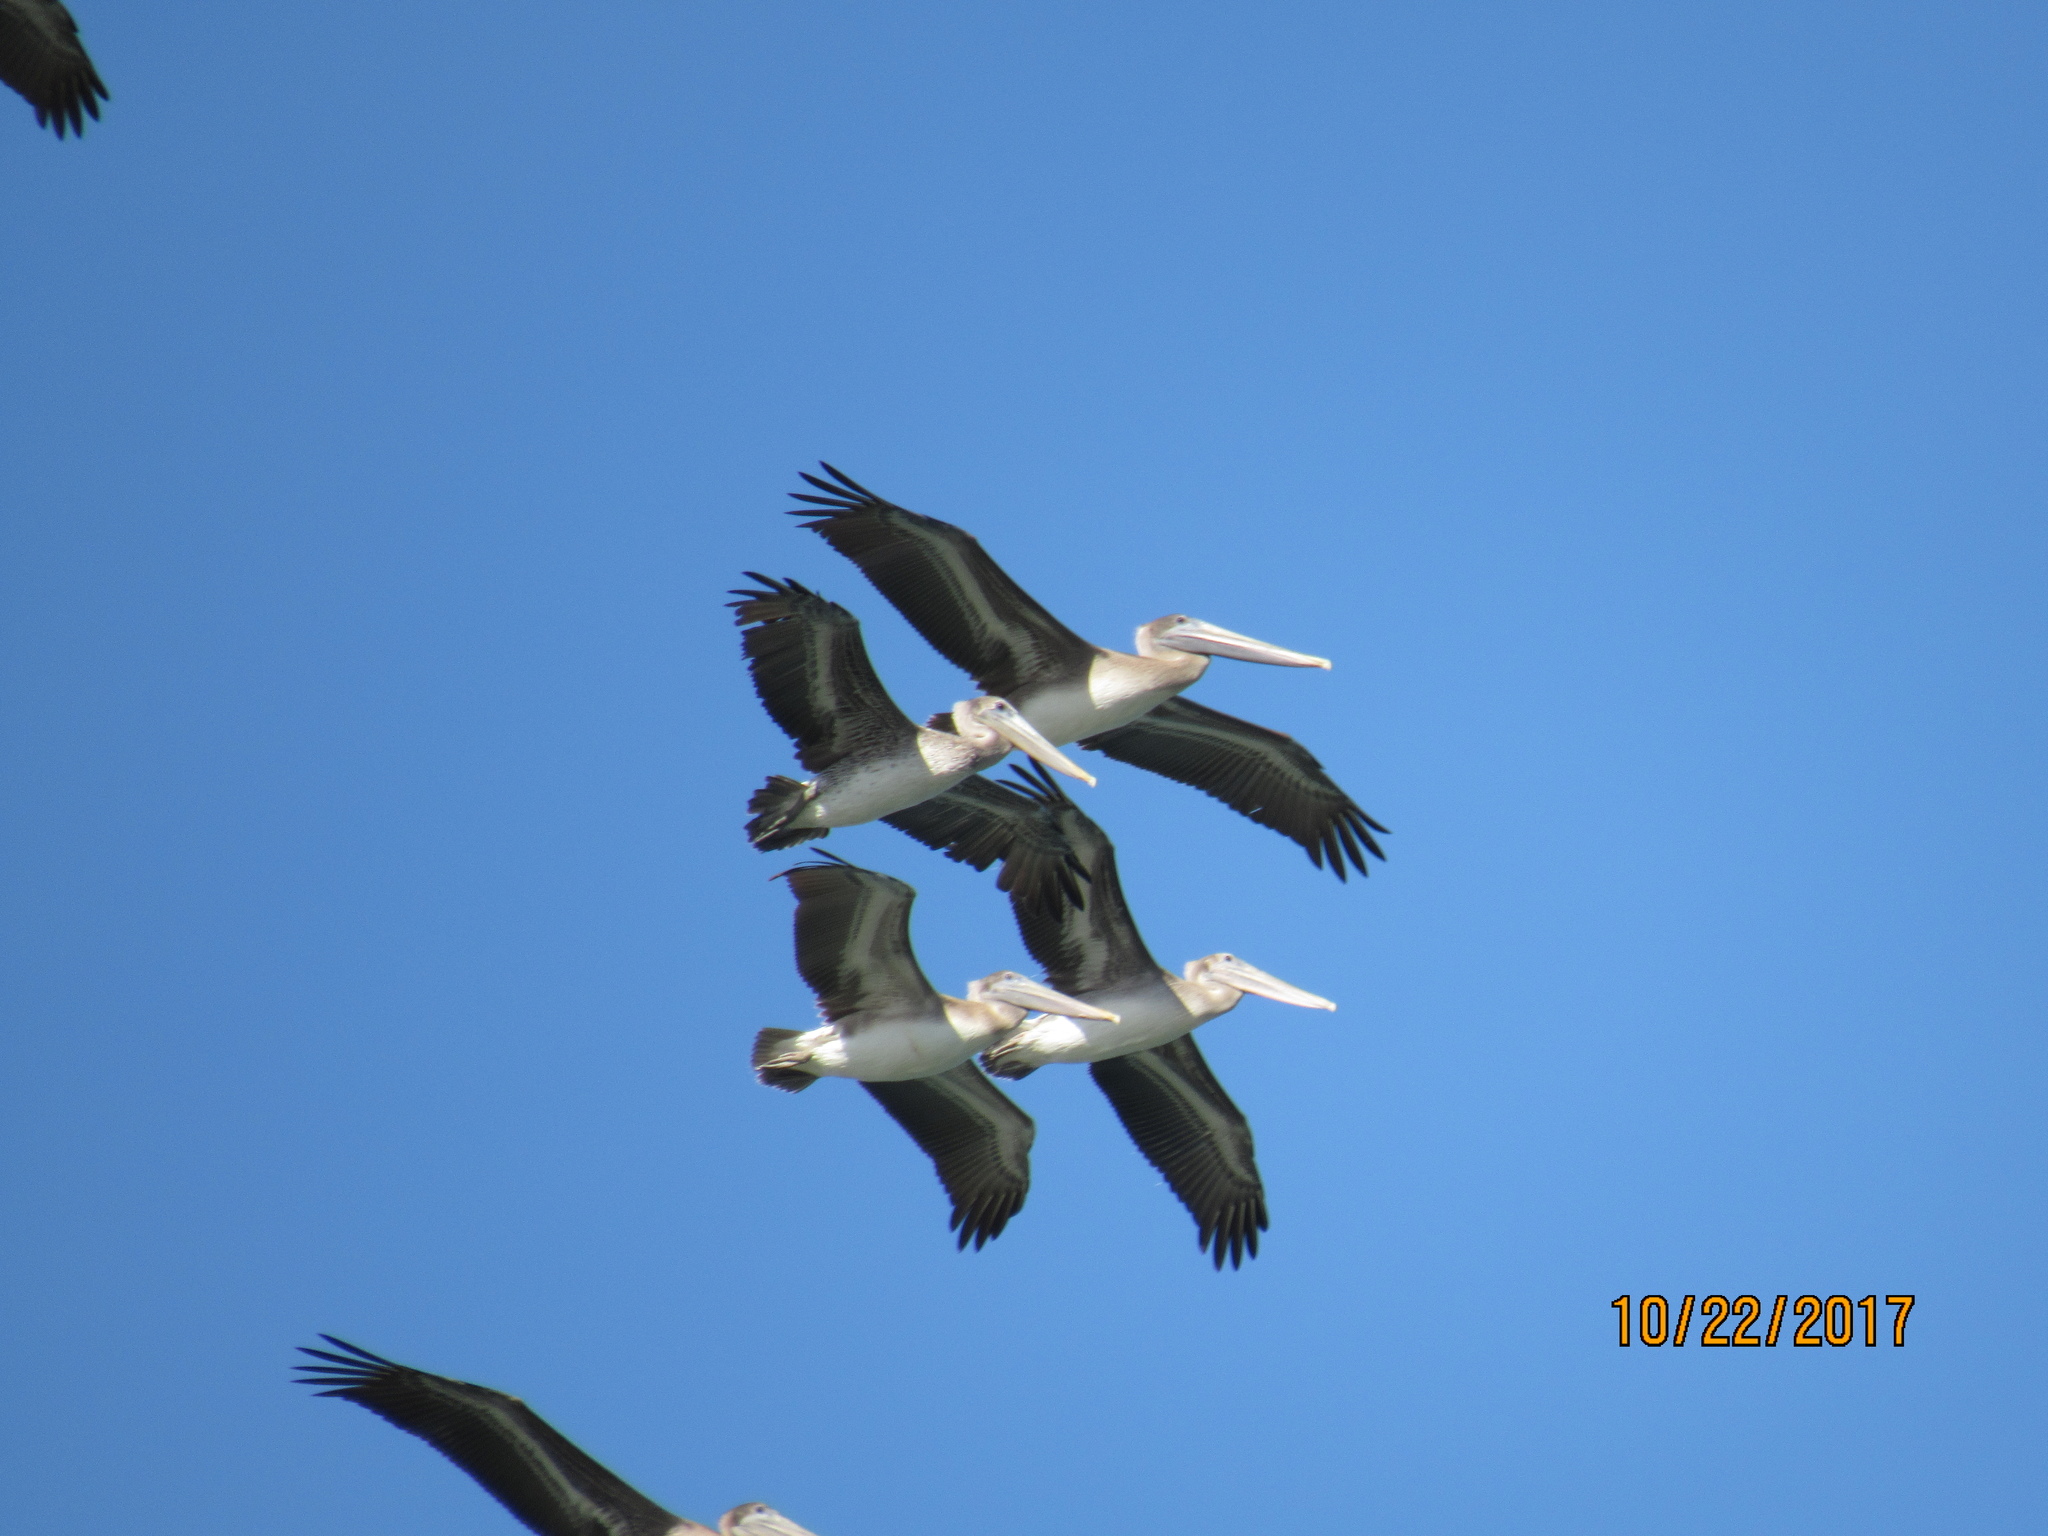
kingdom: Animalia
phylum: Chordata
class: Aves
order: Pelecaniformes
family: Pelecanidae
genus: Pelecanus
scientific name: Pelecanus occidentalis
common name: Brown pelican
